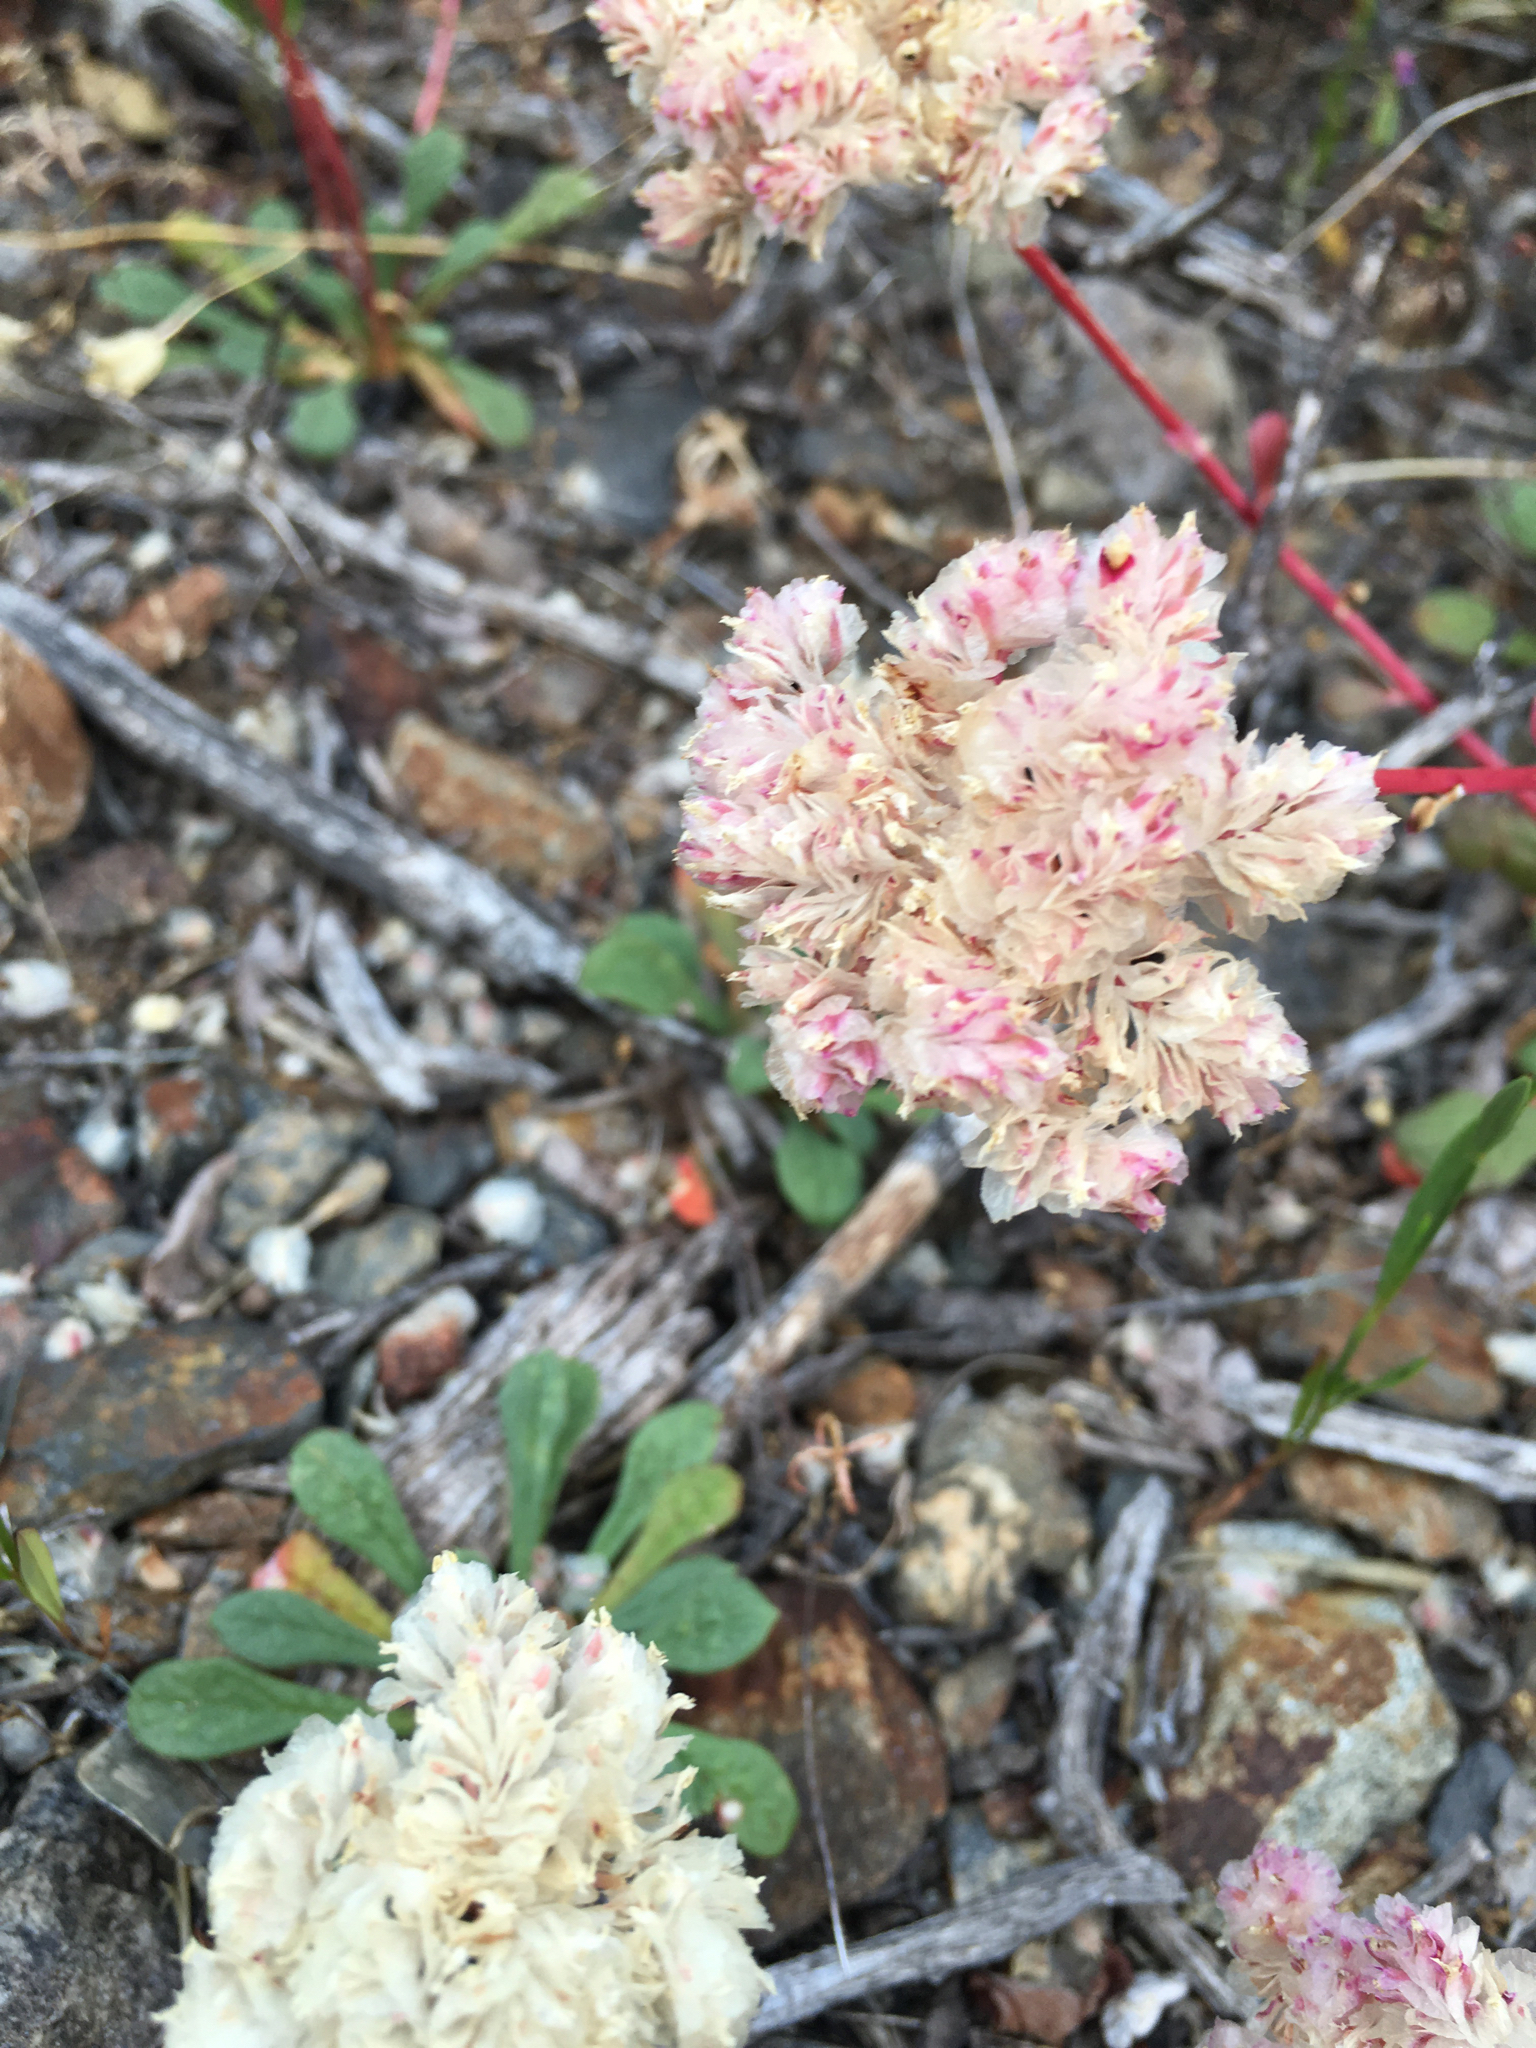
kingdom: Plantae
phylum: Tracheophyta
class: Magnoliopsida
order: Caryophyllales
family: Montiaceae
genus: Calyptridium
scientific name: Calyptridium monospermum
